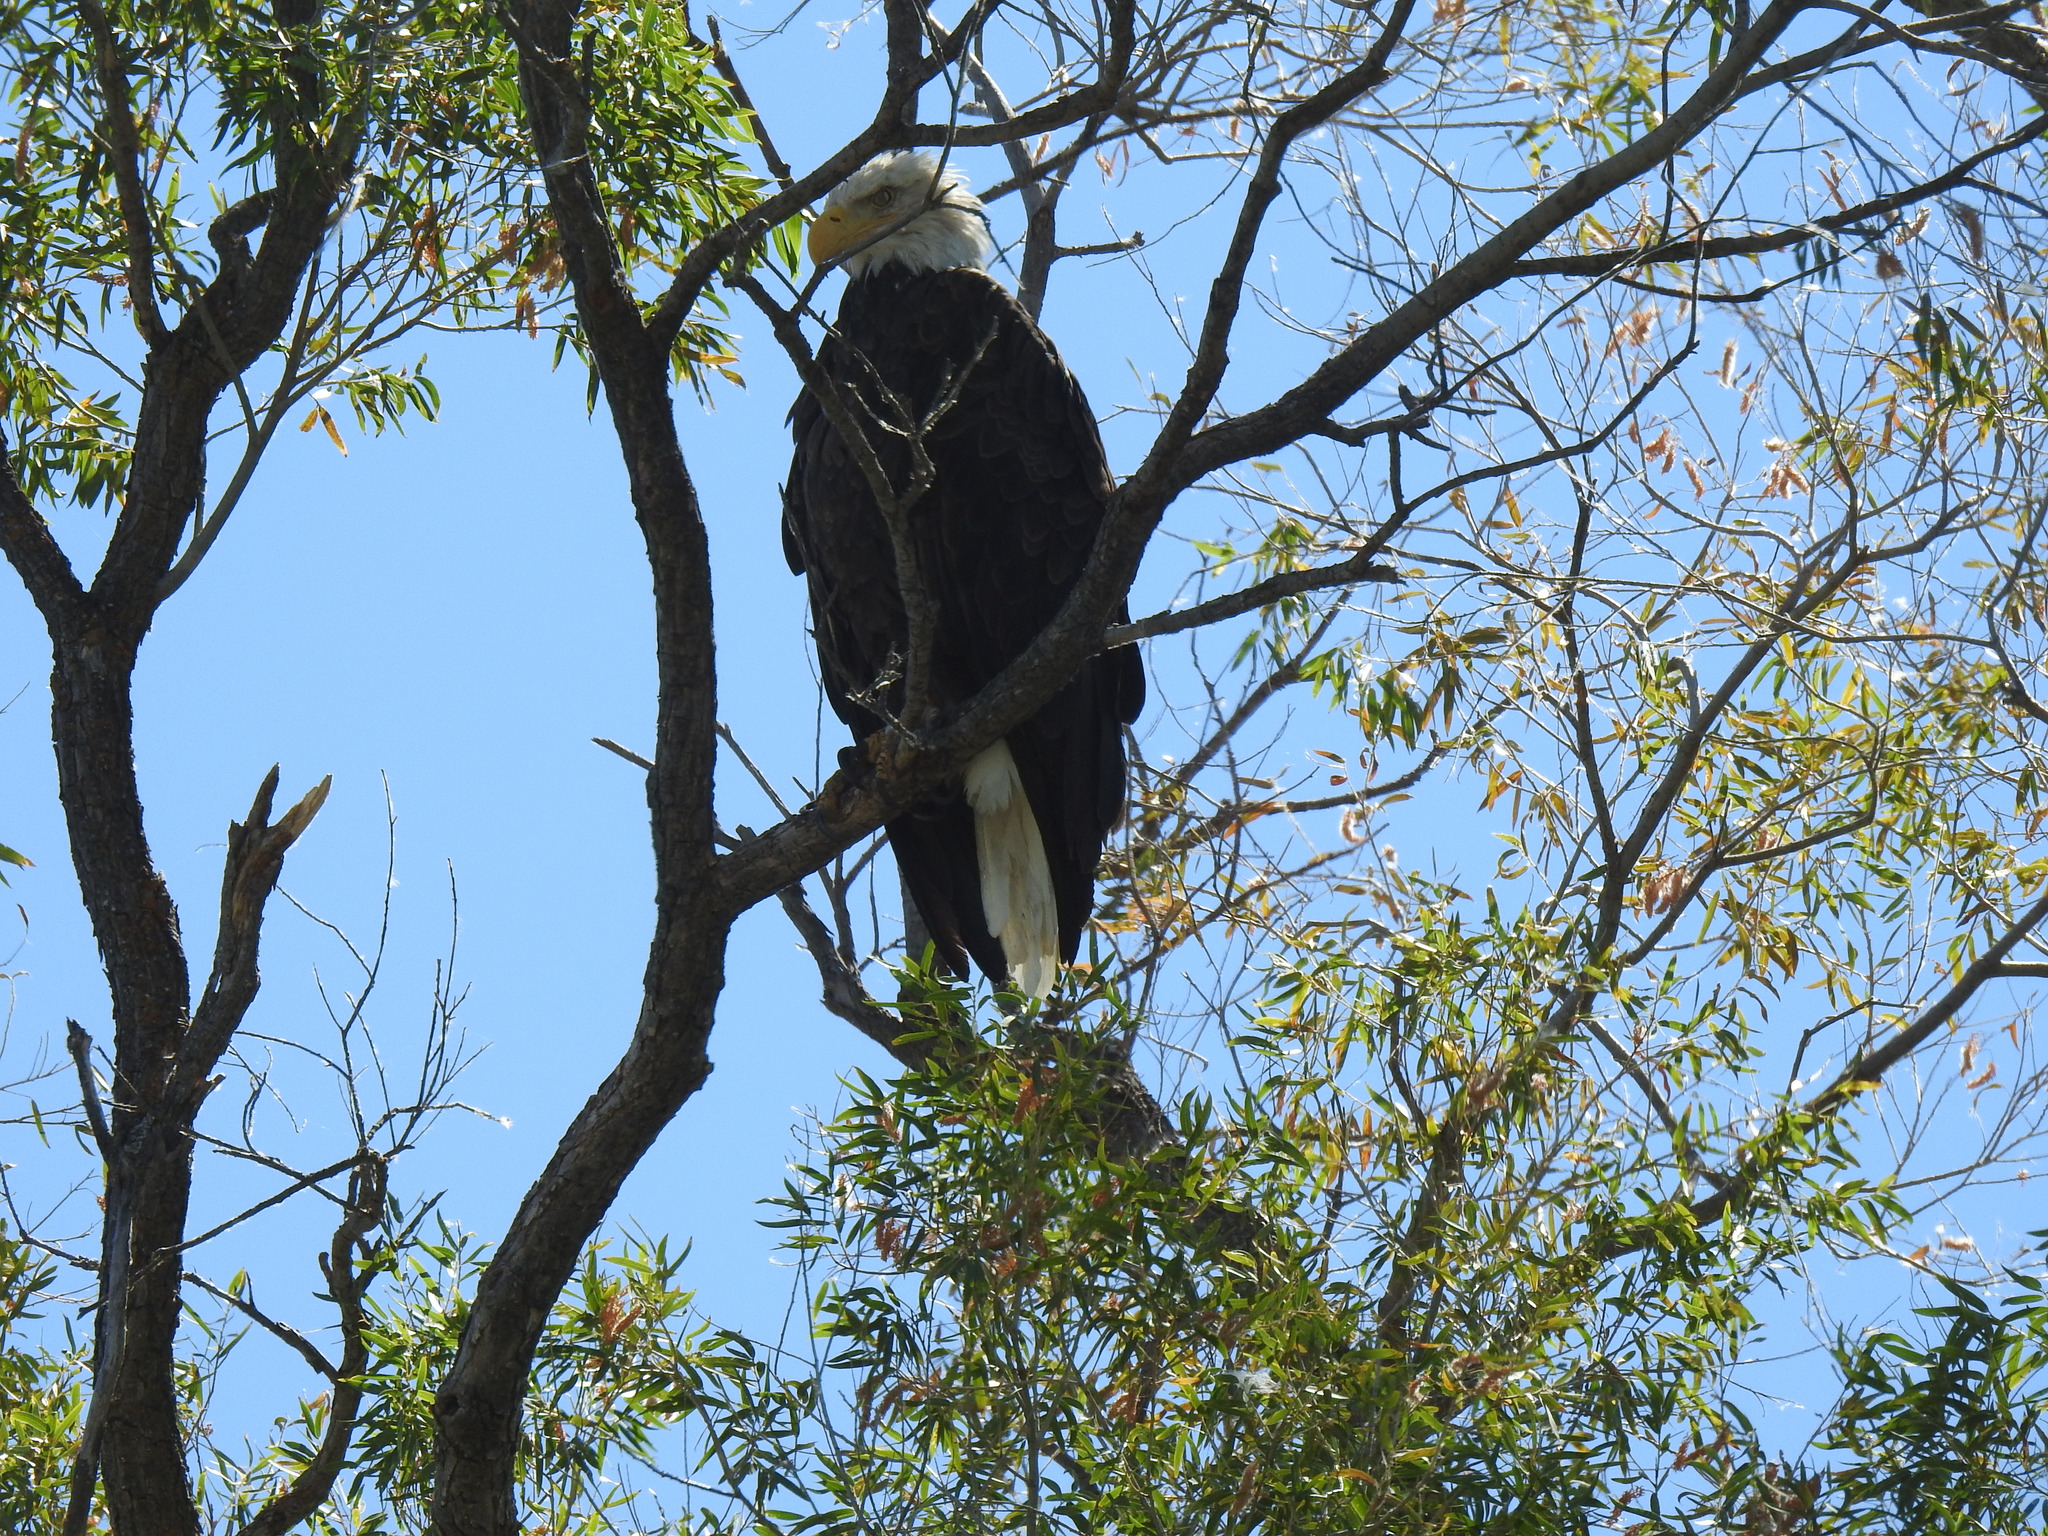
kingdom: Animalia
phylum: Chordata
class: Aves
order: Accipitriformes
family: Accipitridae
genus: Haliaeetus
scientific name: Haliaeetus leucocephalus
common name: Bald eagle
